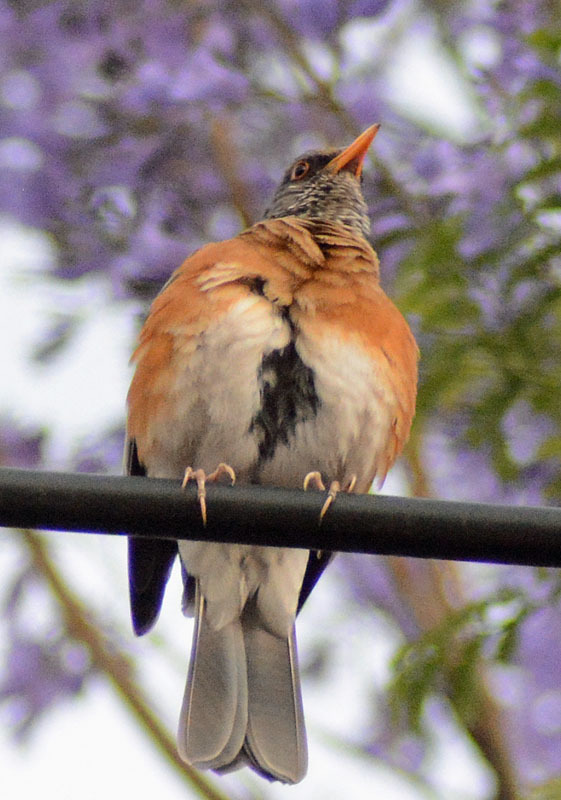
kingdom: Animalia
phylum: Chordata
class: Aves
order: Passeriformes
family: Turdidae
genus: Turdus
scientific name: Turdus rufopalliatus
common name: Rufous-backed robin
